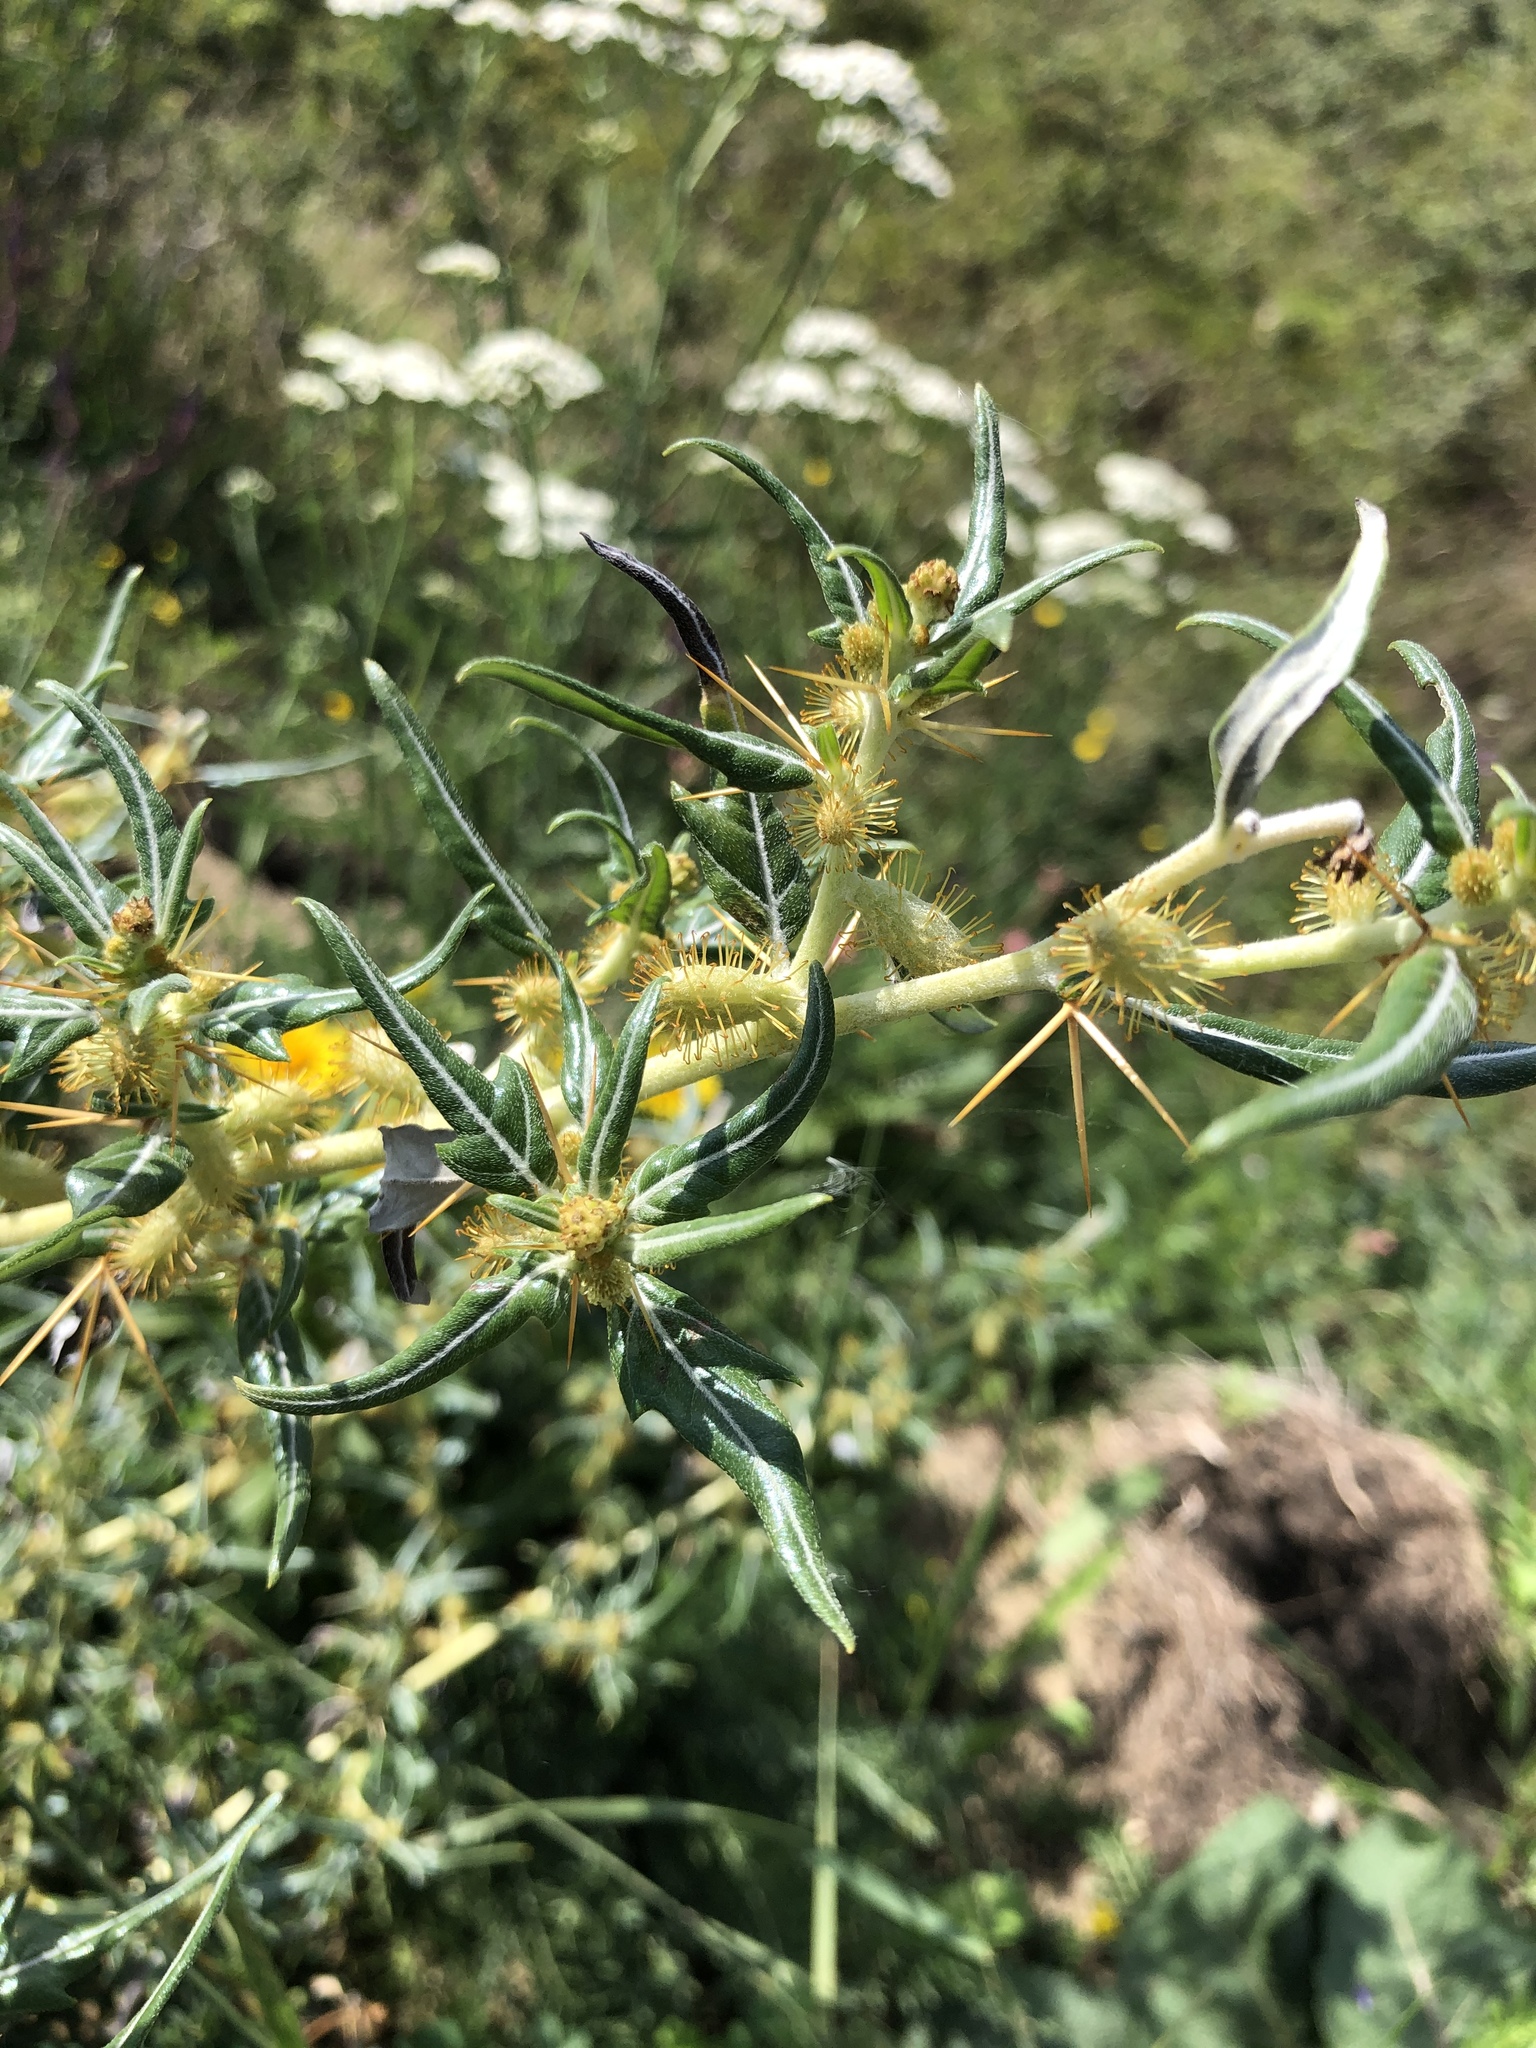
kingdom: Plantae
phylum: Tracheophyta
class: Magnoliopsida
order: Asterales
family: Asteraceae
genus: Xanthium
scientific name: Xanthium spinosum
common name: Spiny cocklebur
